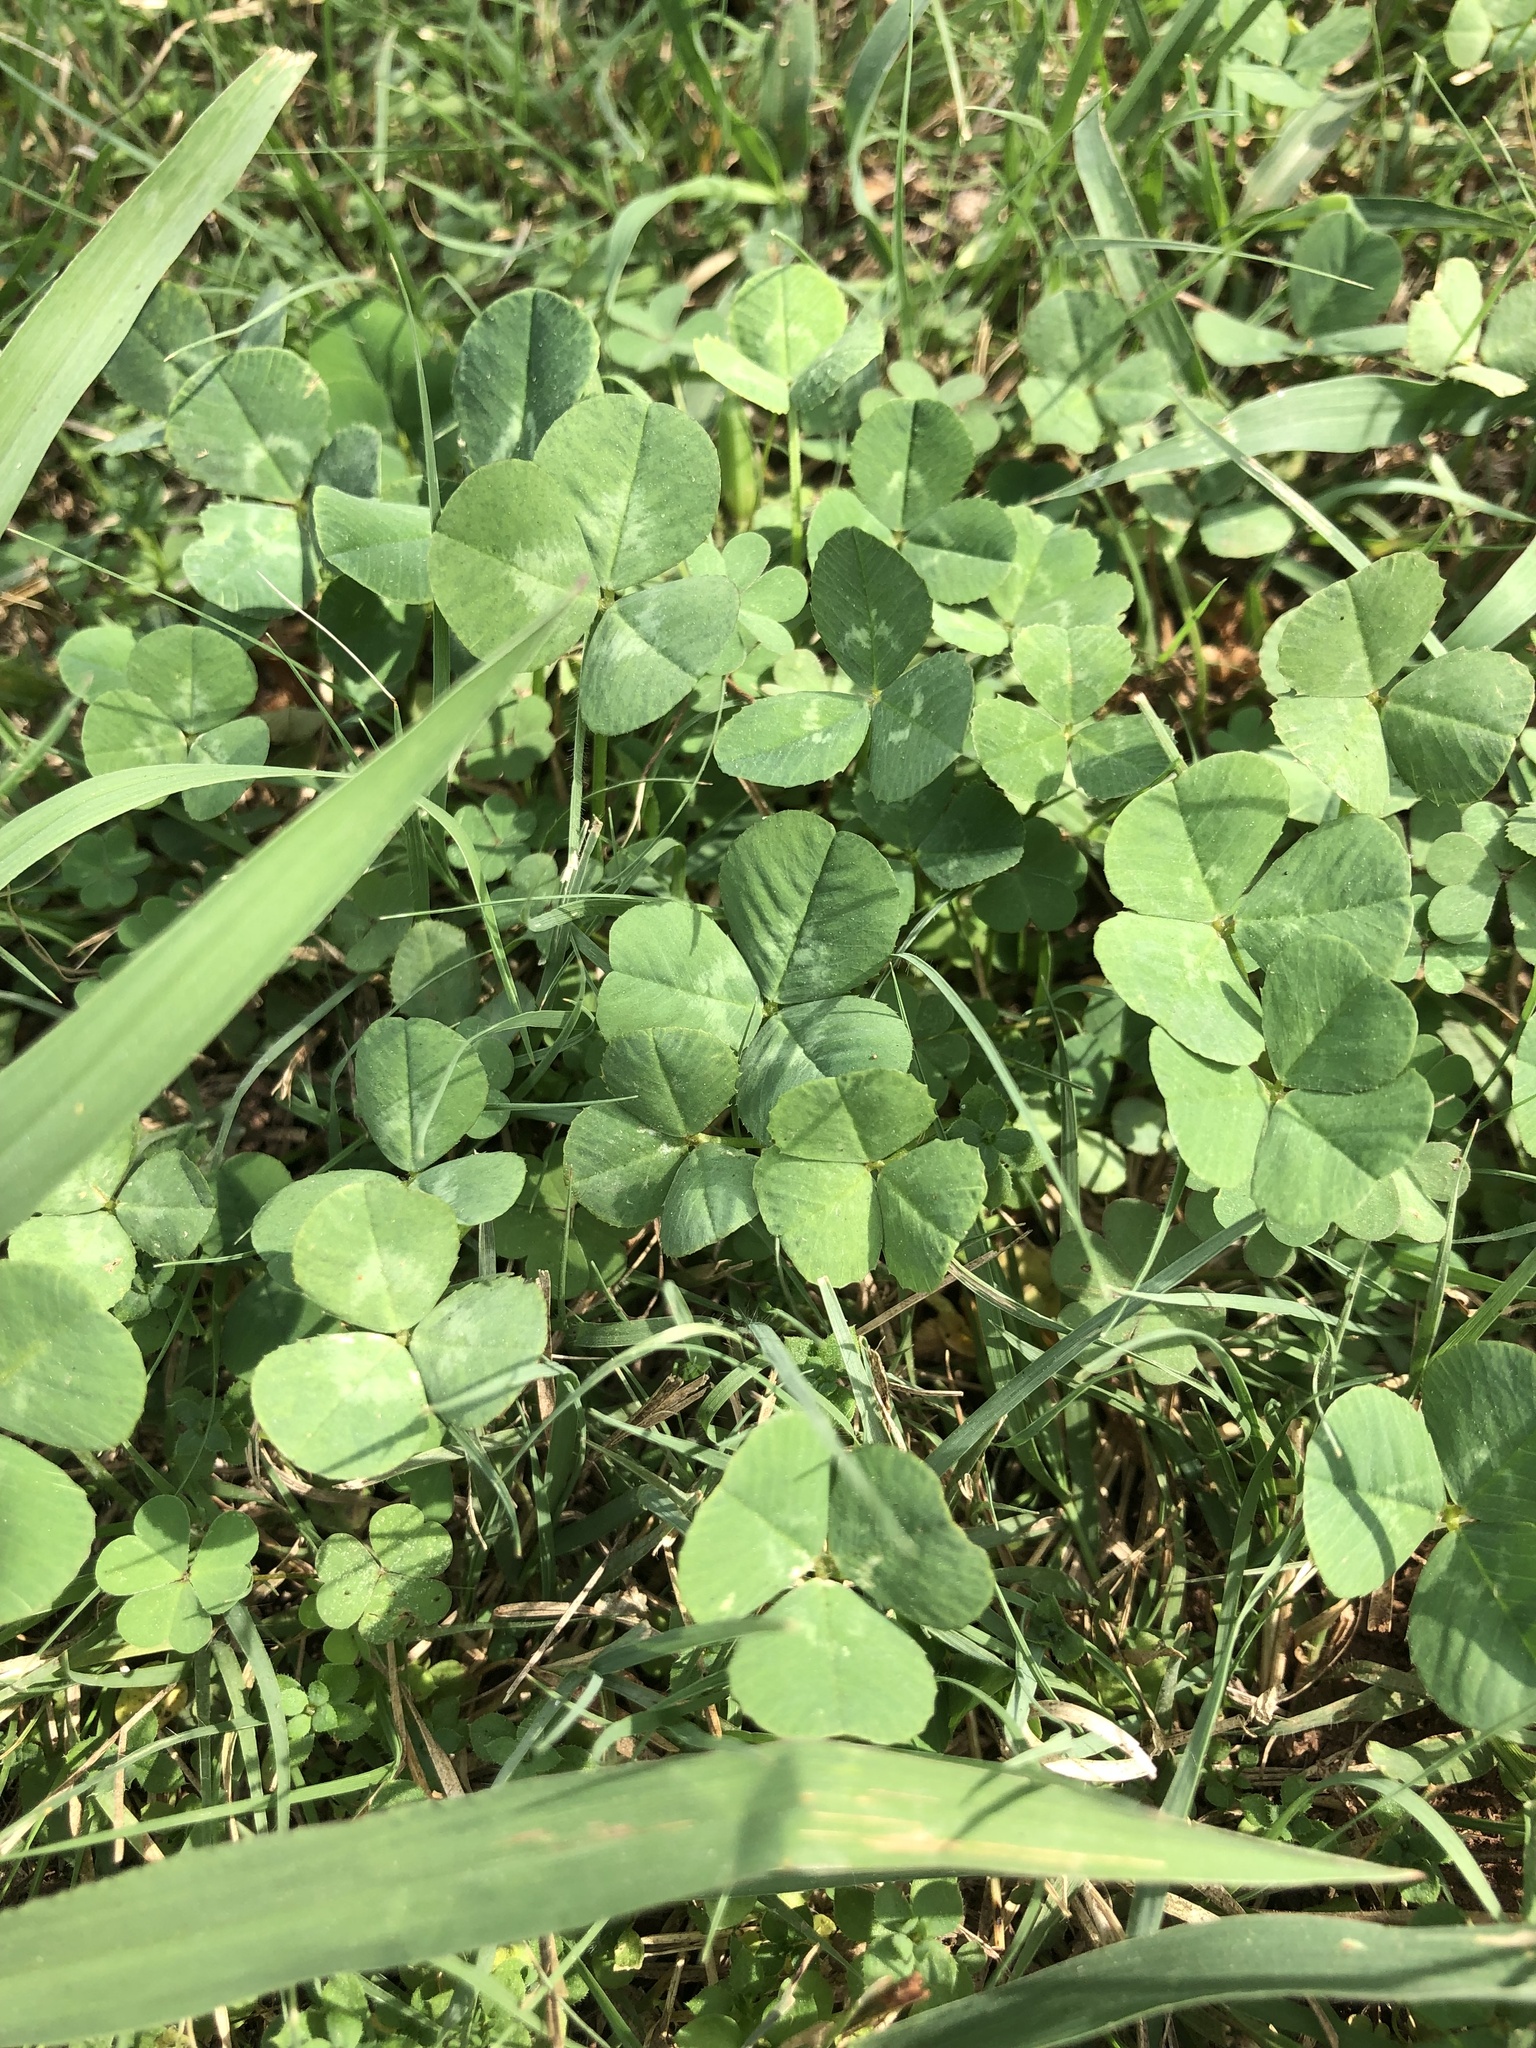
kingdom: Plantae
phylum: Tracheophyta
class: Magnoliopsida
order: Fabales
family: Fabaceae
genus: Trifolium
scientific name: Trifolium repens
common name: White clover
